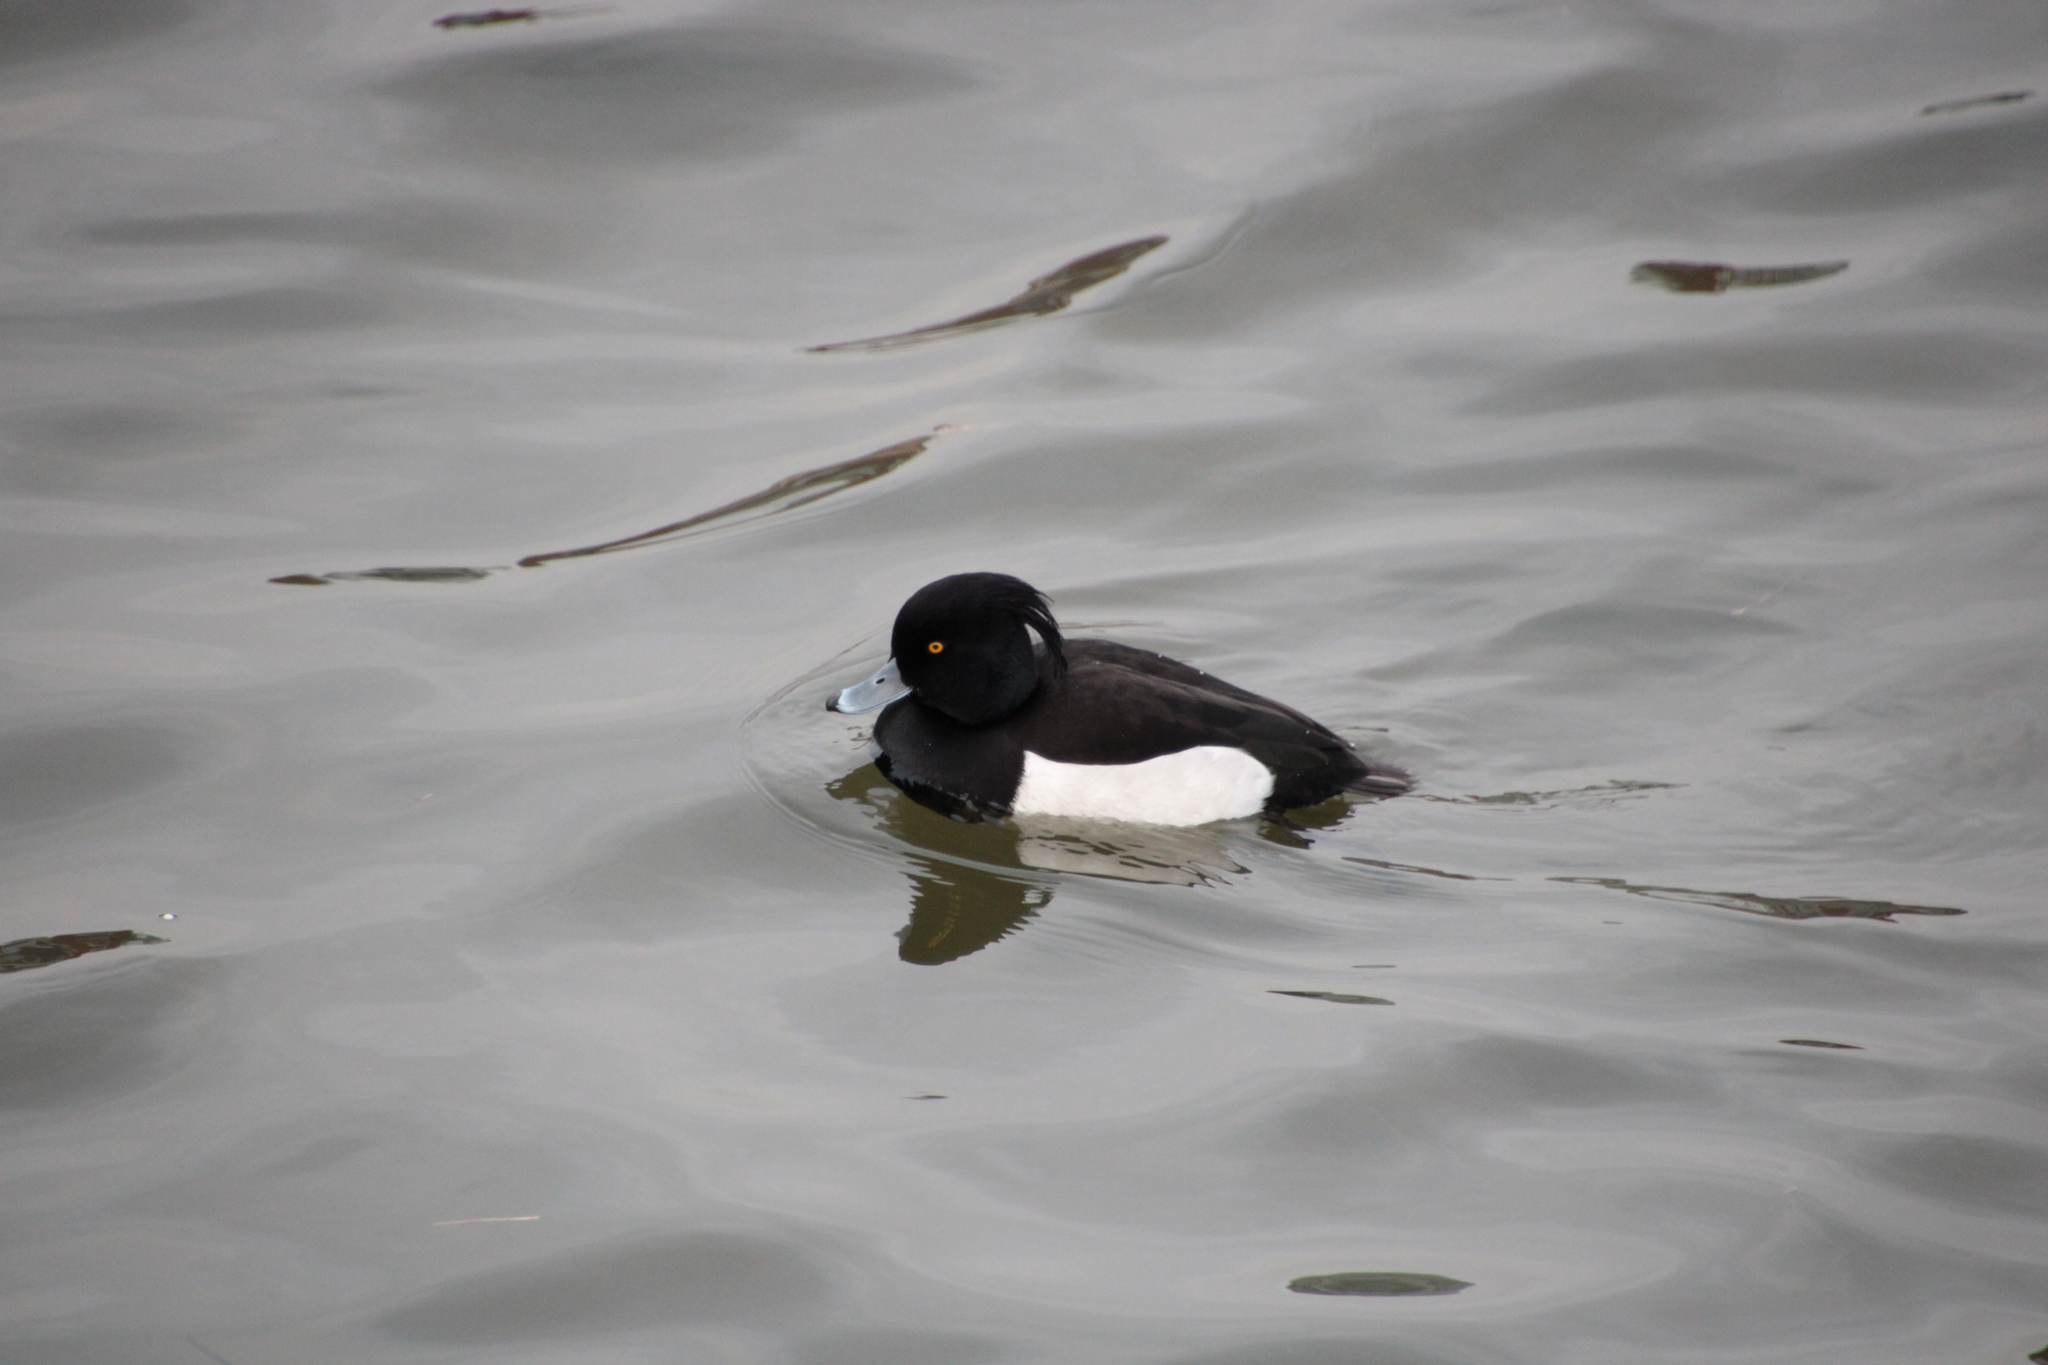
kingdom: Animalia
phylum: Chordata
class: Aves
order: Anseriformes
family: Anatidae
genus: Aythya
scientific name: Aythya fuligula
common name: Tufted duck
